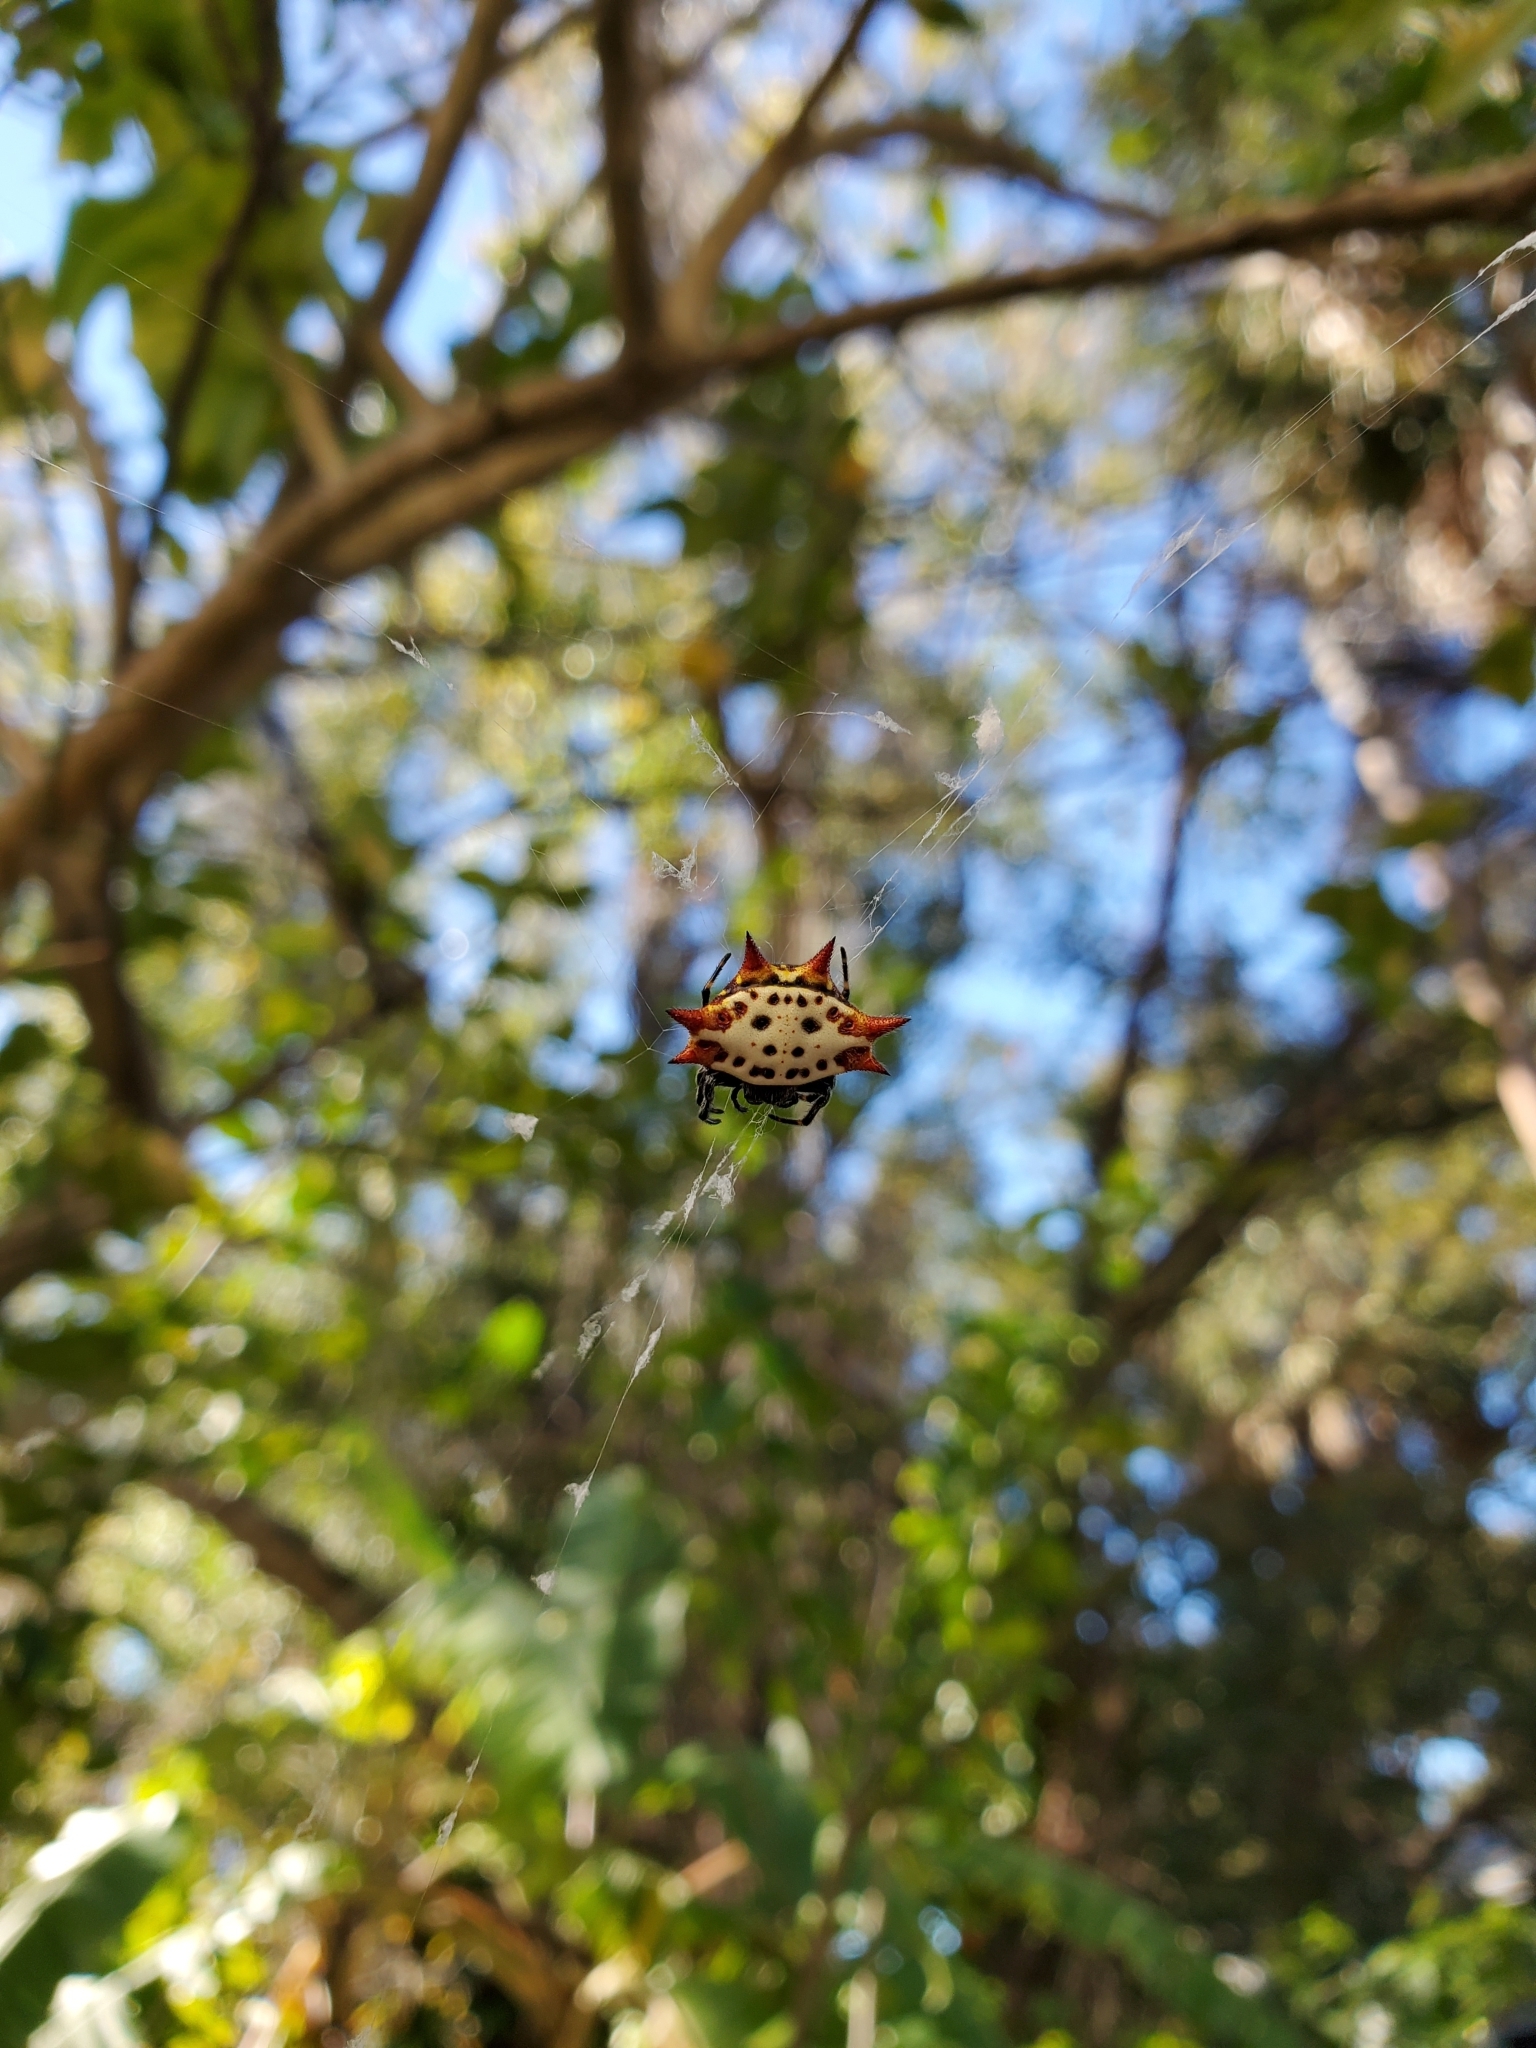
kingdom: Animalia
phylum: Arthropoda
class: Arachnida
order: Araneae
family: Araneidae
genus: Gasteracantha
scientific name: Gasteracantha cancriformis
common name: Orb weavers
